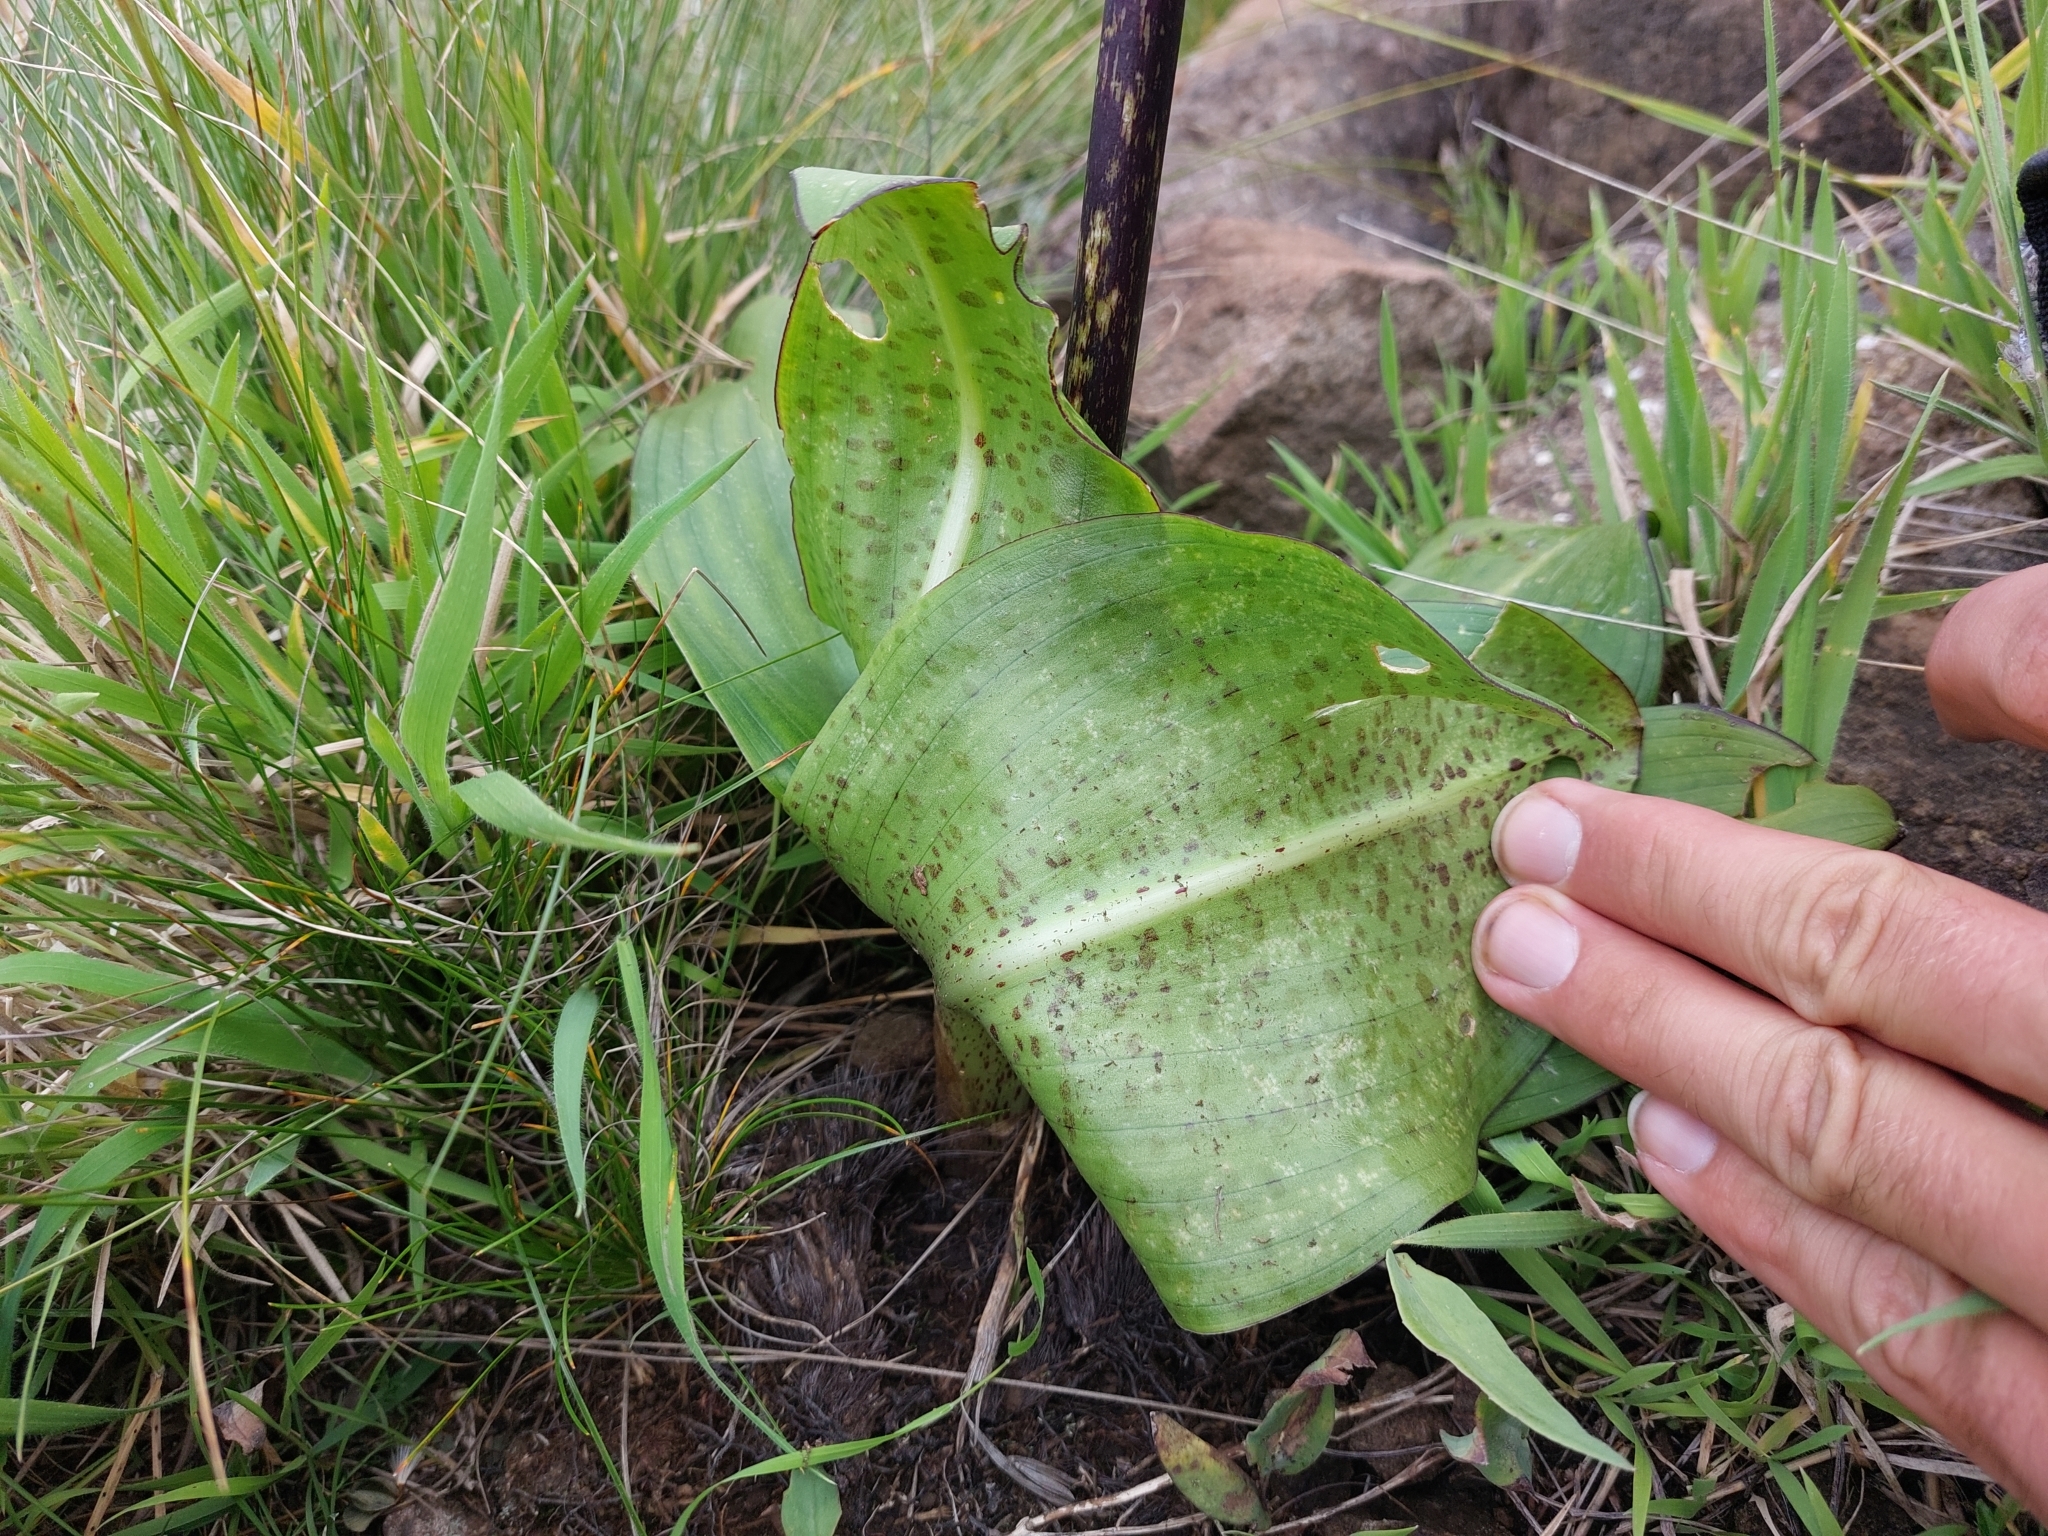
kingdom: Plantae
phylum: Tracheophyta
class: Liliopsida
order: Asparagales
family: Asparagaceae
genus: Eucomis
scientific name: Eucomis bicolor
